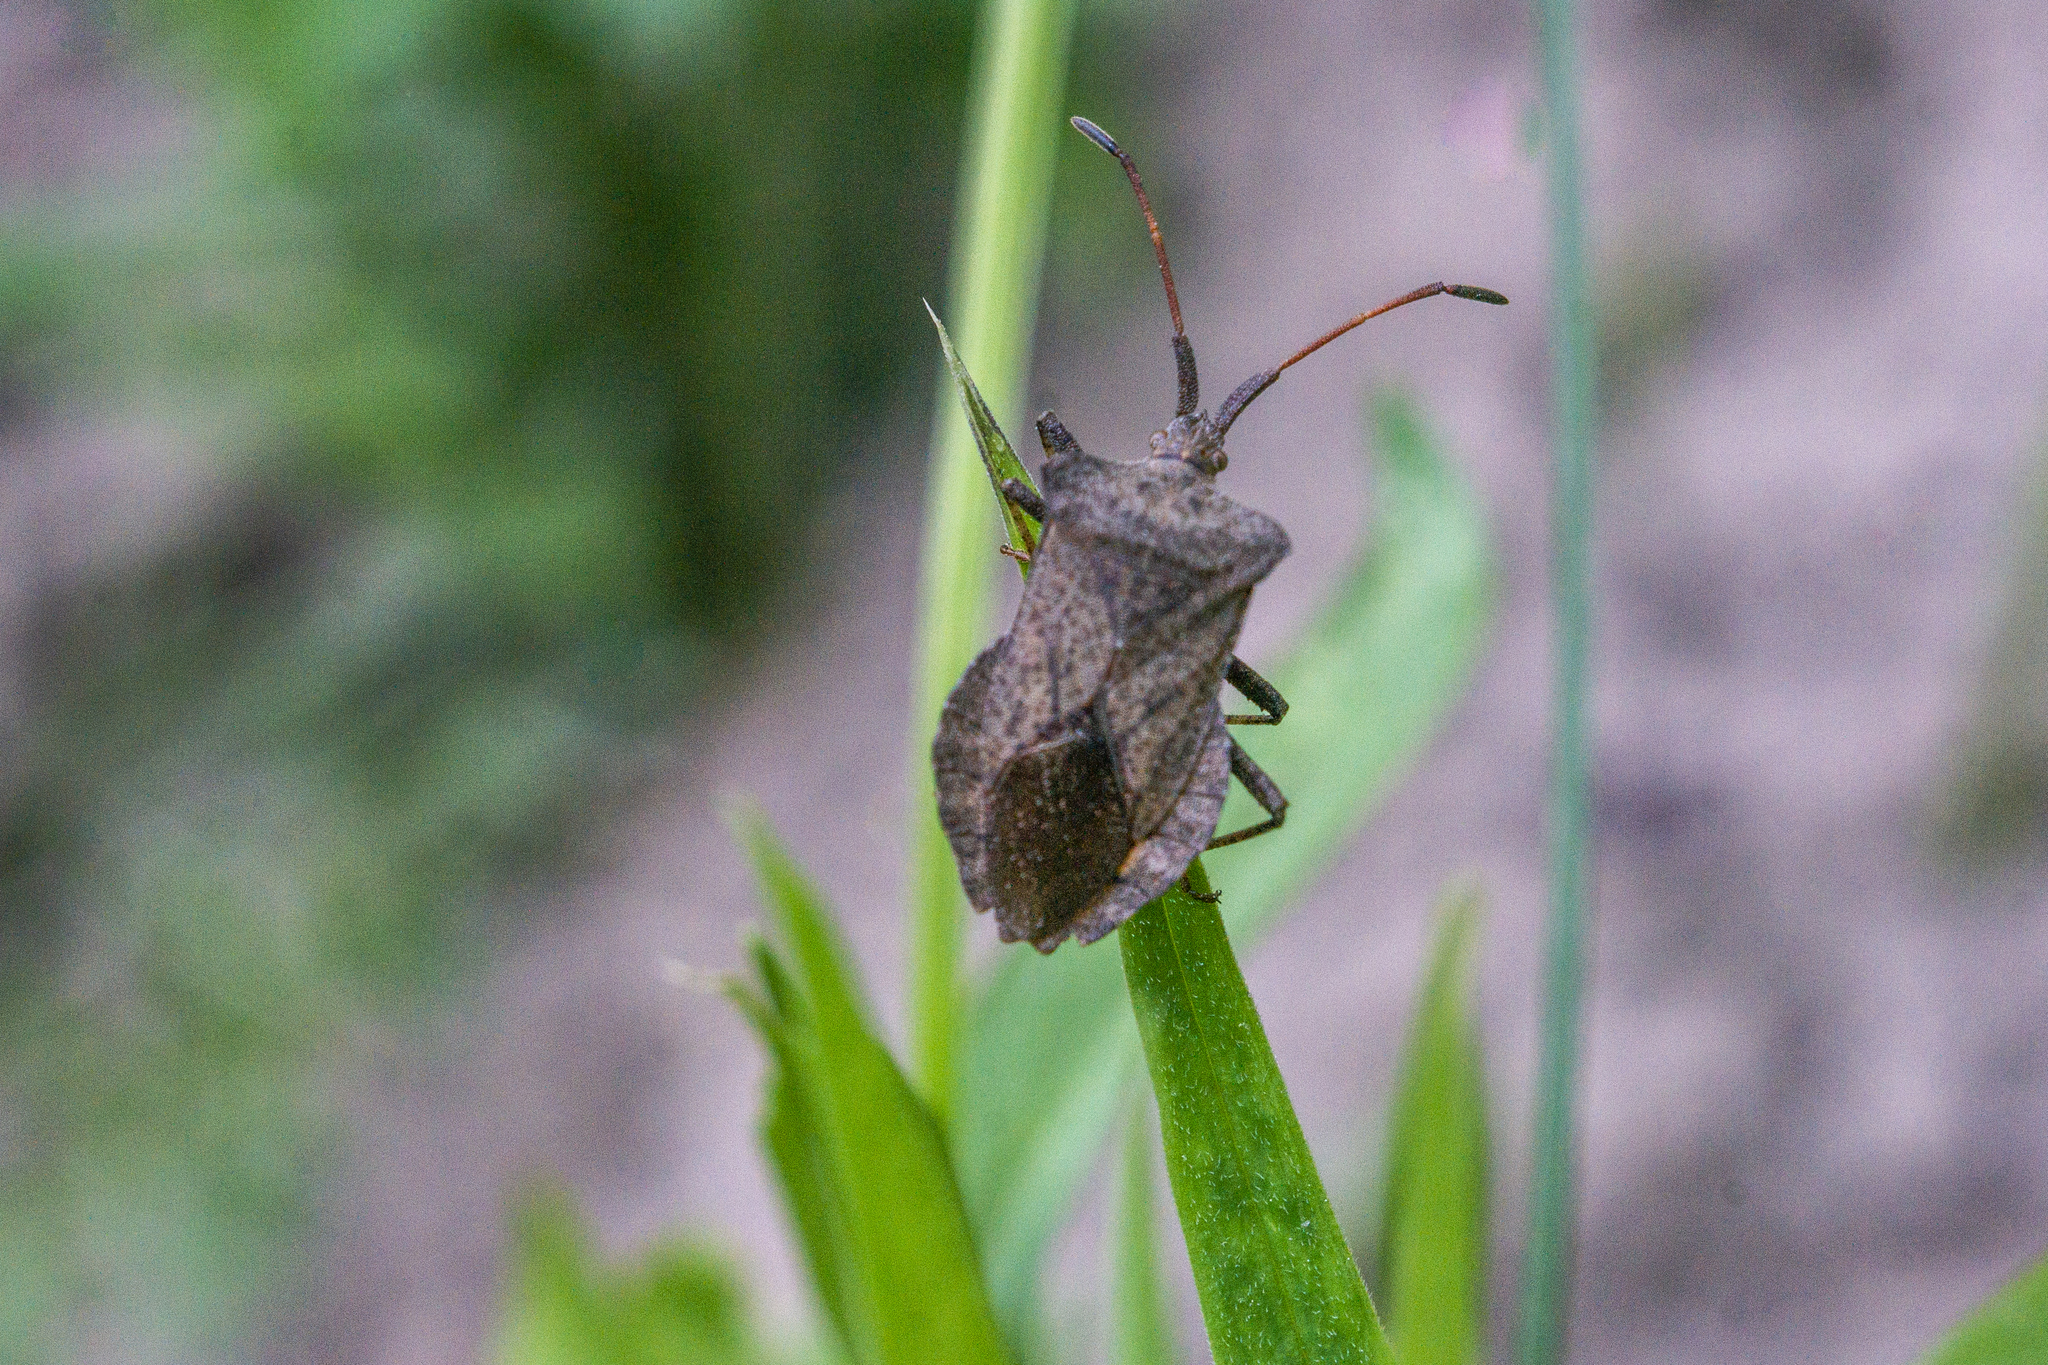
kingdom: Animalia
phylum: Arthropoda
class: Insecta
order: Hemiptera
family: Coreidae
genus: Coreus
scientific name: Coreus marginatus
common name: Dock bug
